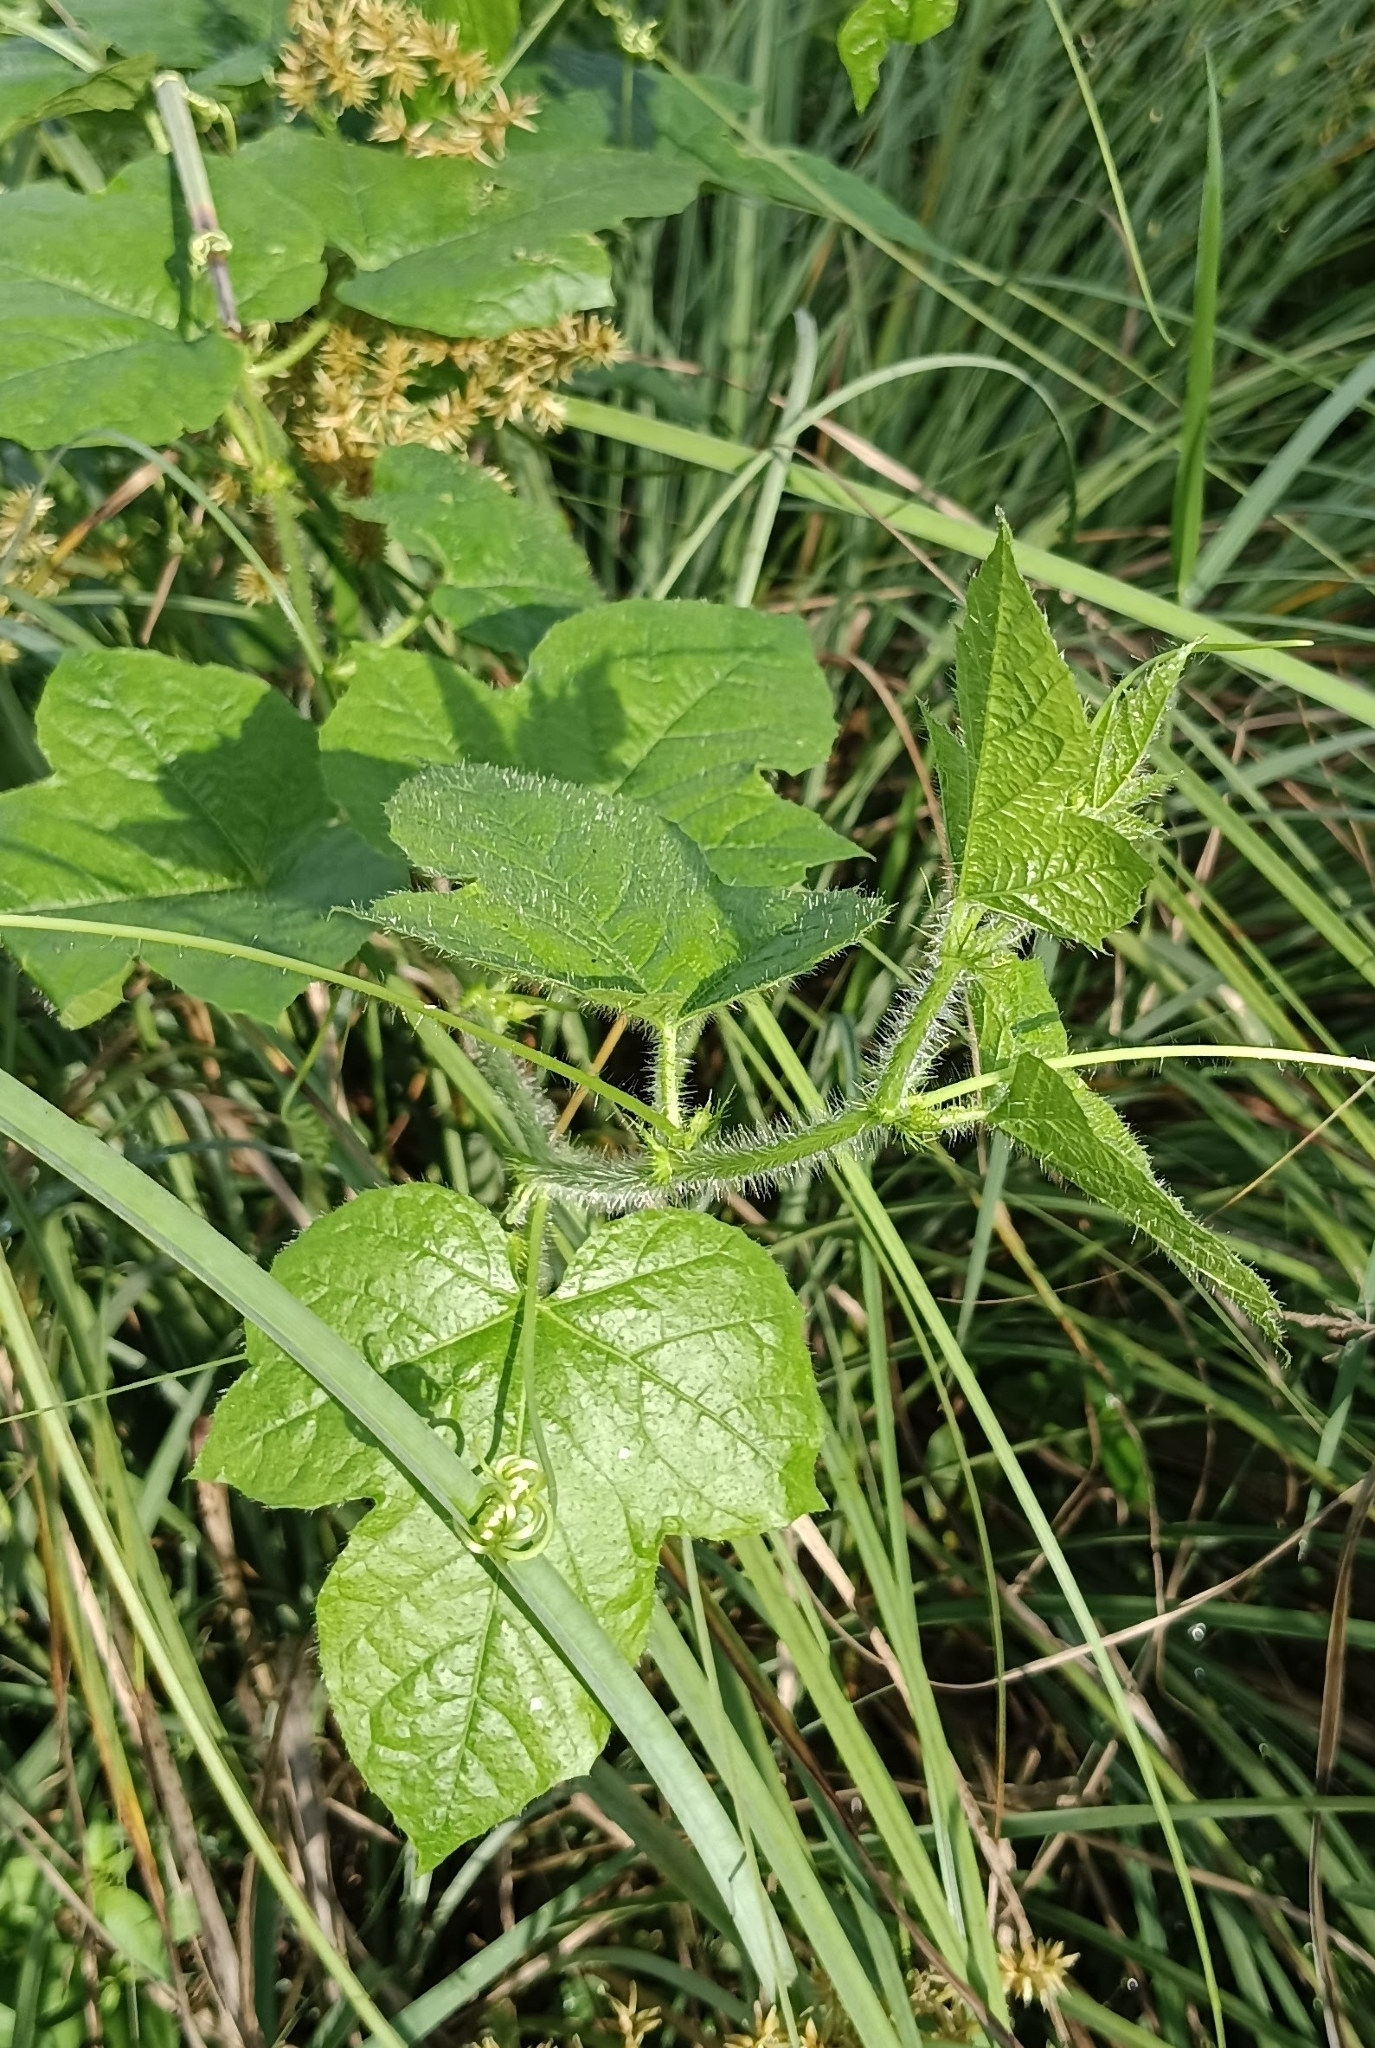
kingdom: Plantae
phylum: Tracheophyta
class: Magnoliopsida
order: Malpighiales
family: Passifloraceae
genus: Passiflora
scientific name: Passiflora foetida
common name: Fetid passionflower
